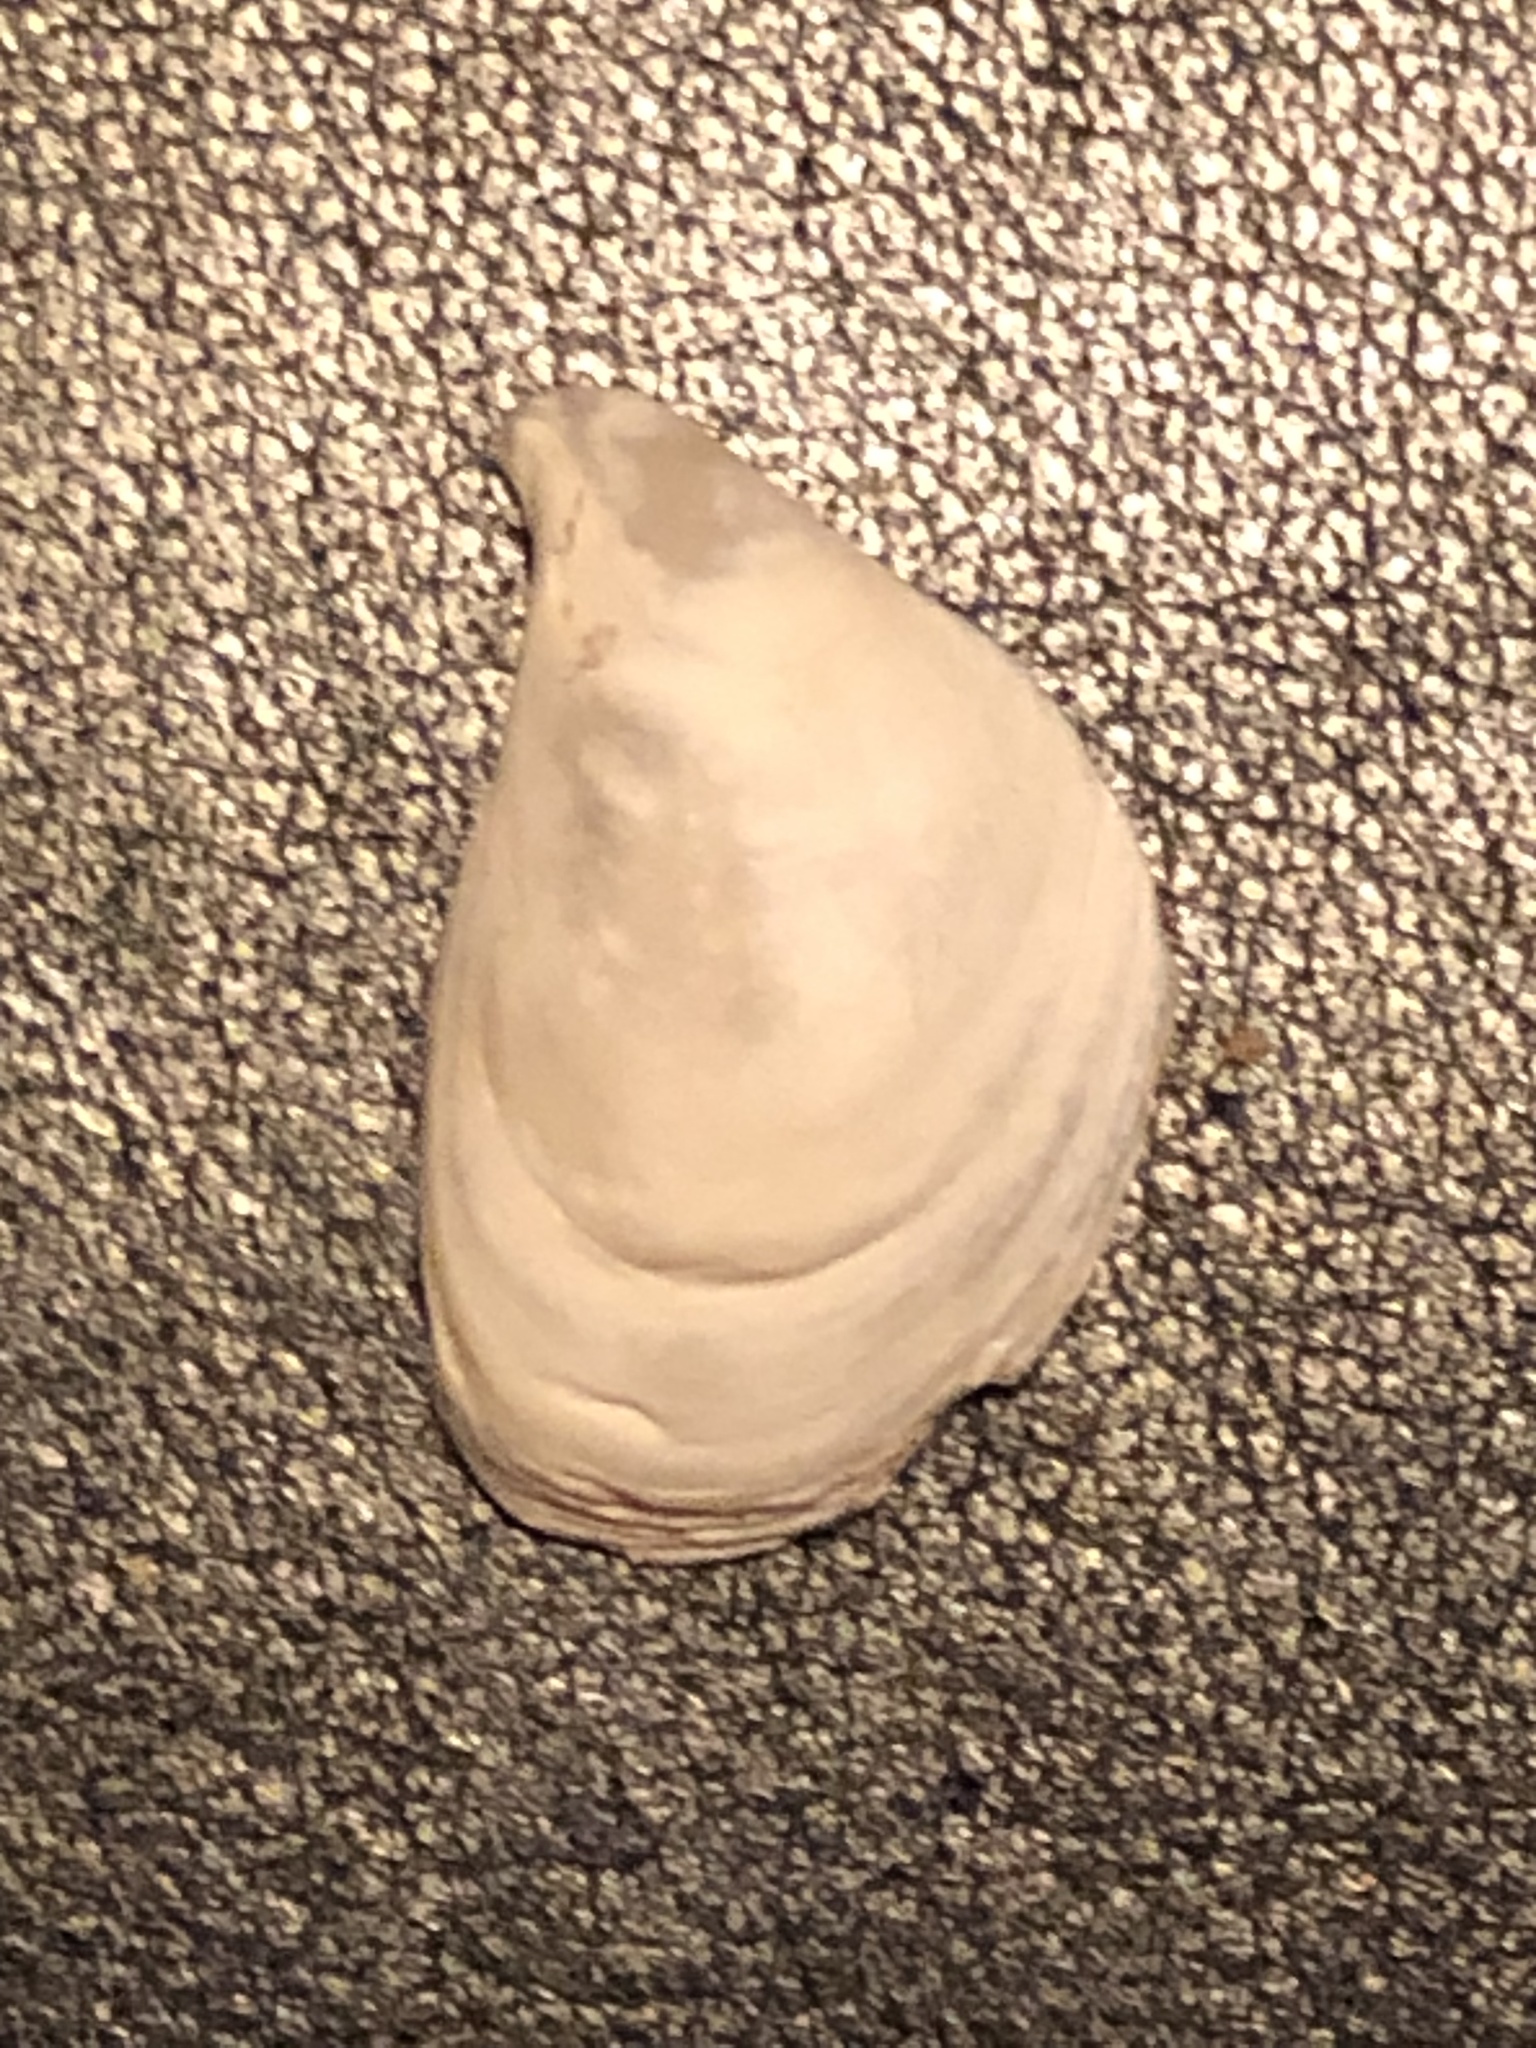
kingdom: Animalia
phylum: Mollusca
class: Bivalvia
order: Myida
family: Dreissenidae
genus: Dreissena
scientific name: Dreissena bugensis
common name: Quagga mussel
